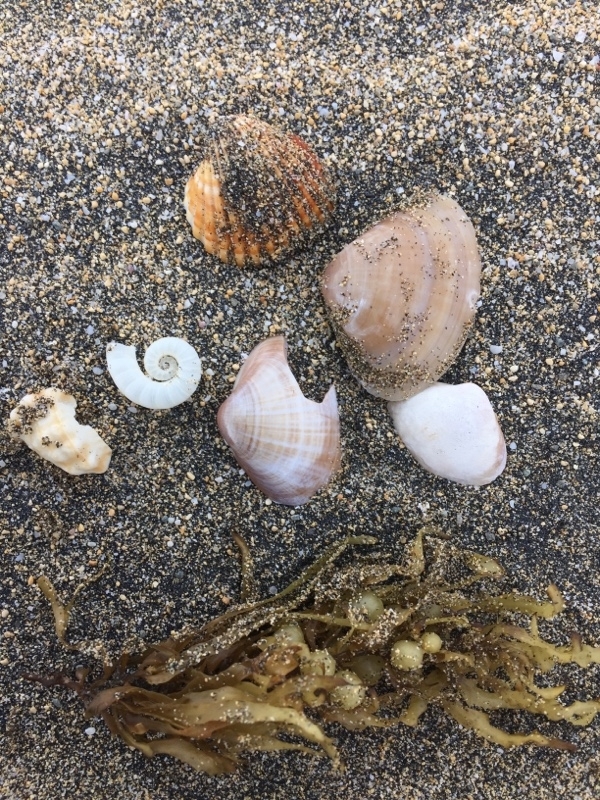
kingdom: Animalia
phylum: Mollusca
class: Cephalopoda
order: Spirulida
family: Spirulidae
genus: Spirula
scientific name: Spirula spirula
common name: Ram's horn squid
